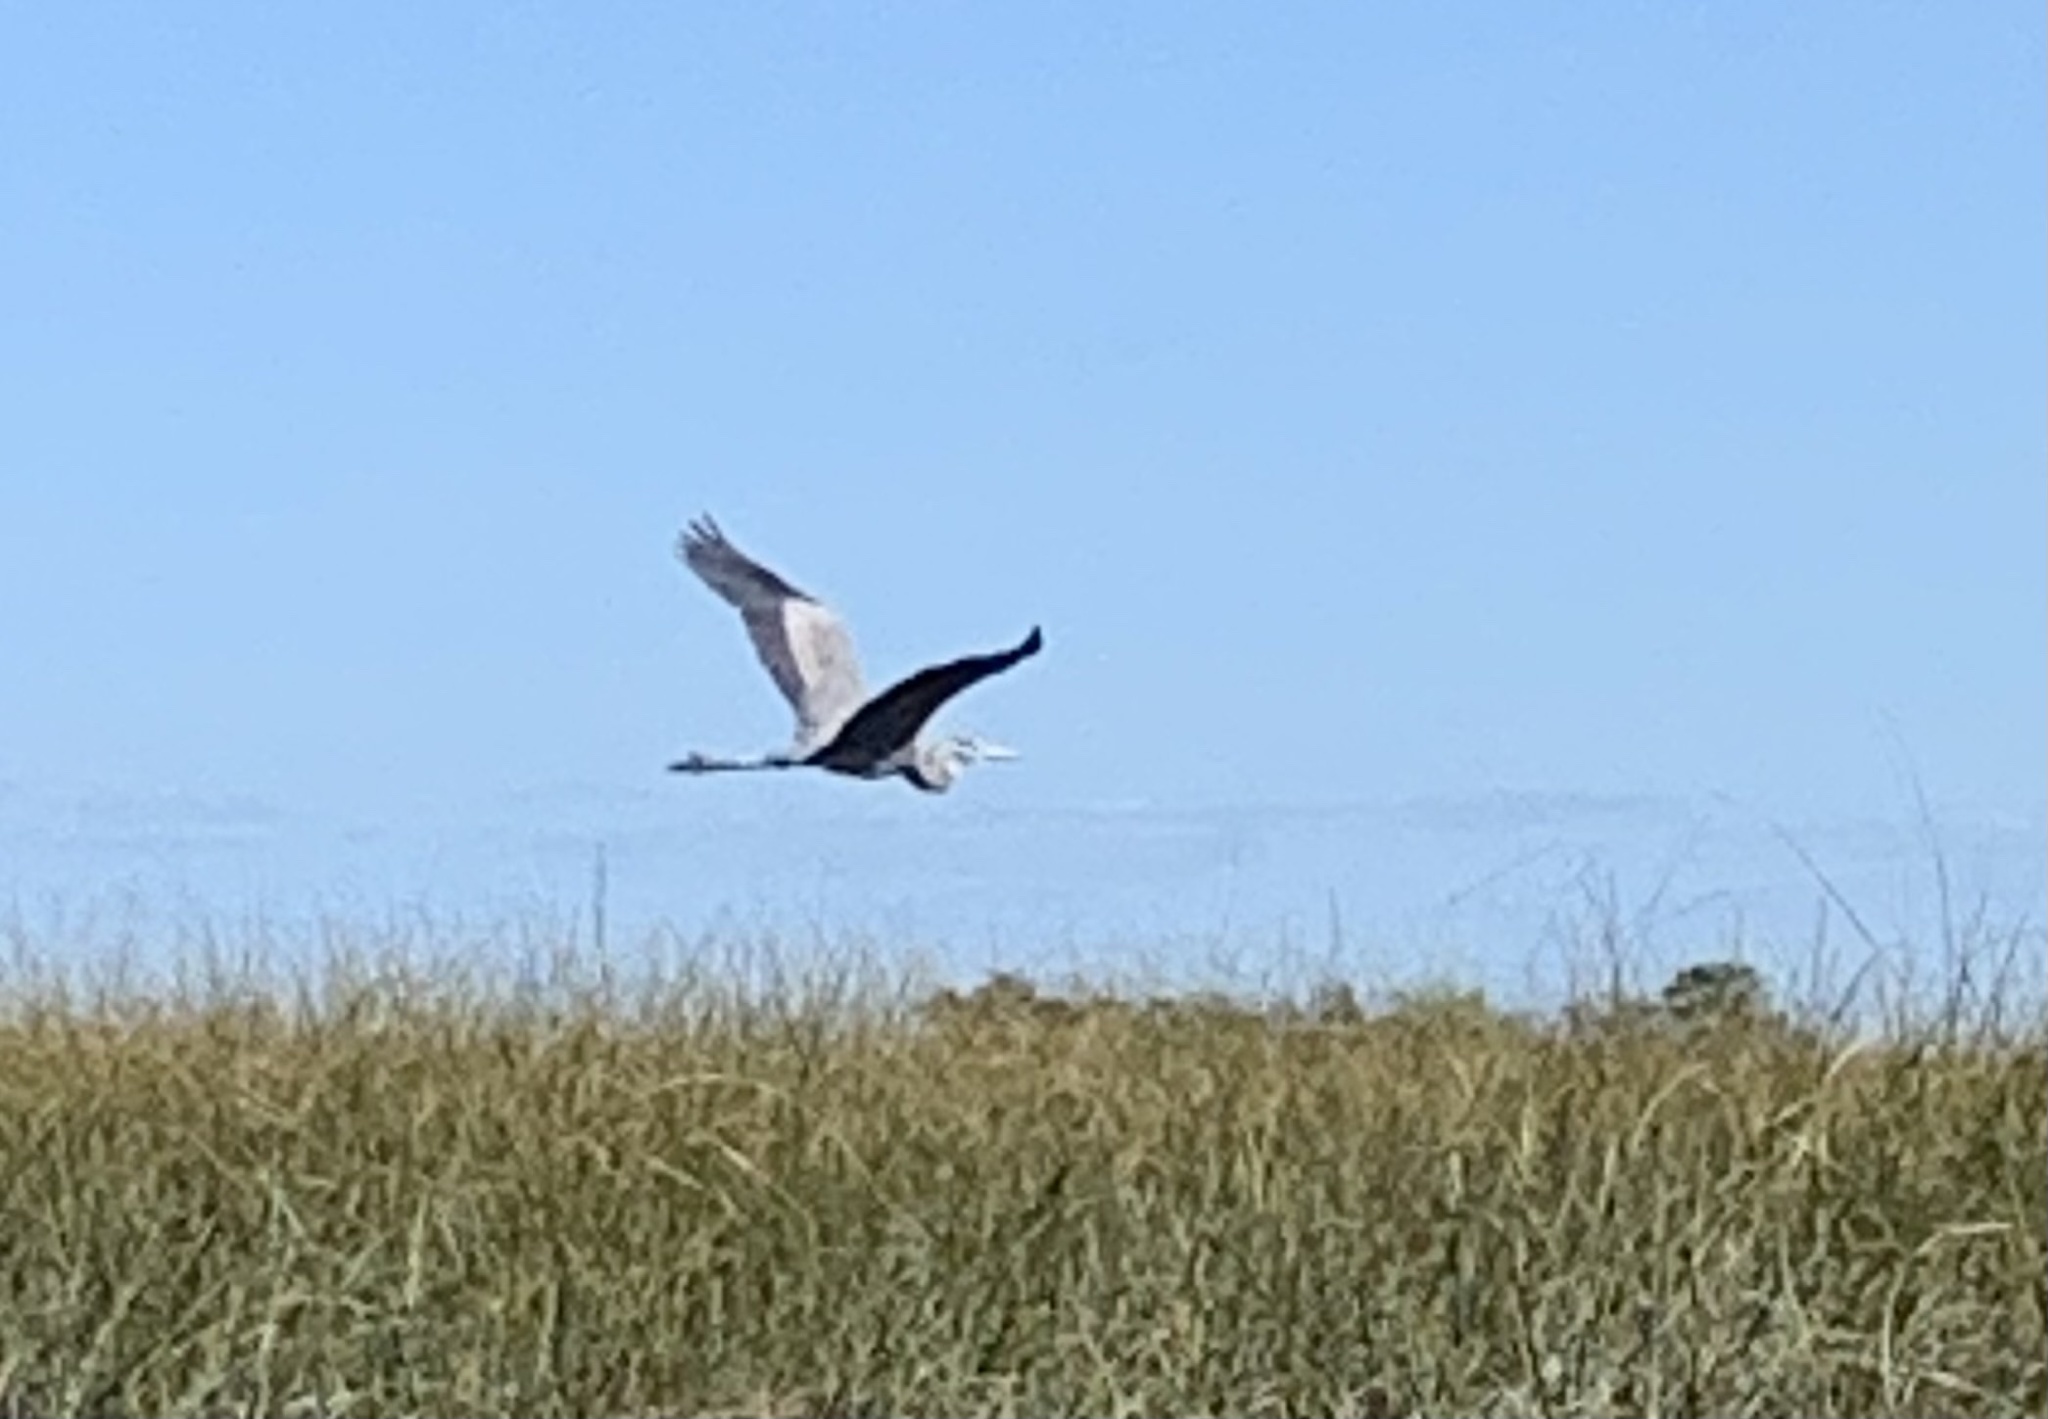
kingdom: Animalia
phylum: Chordata
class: Aves
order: Pelecaniformes
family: Ardeidae
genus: Ardea
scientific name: Ardea herodias
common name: Great blue heron
